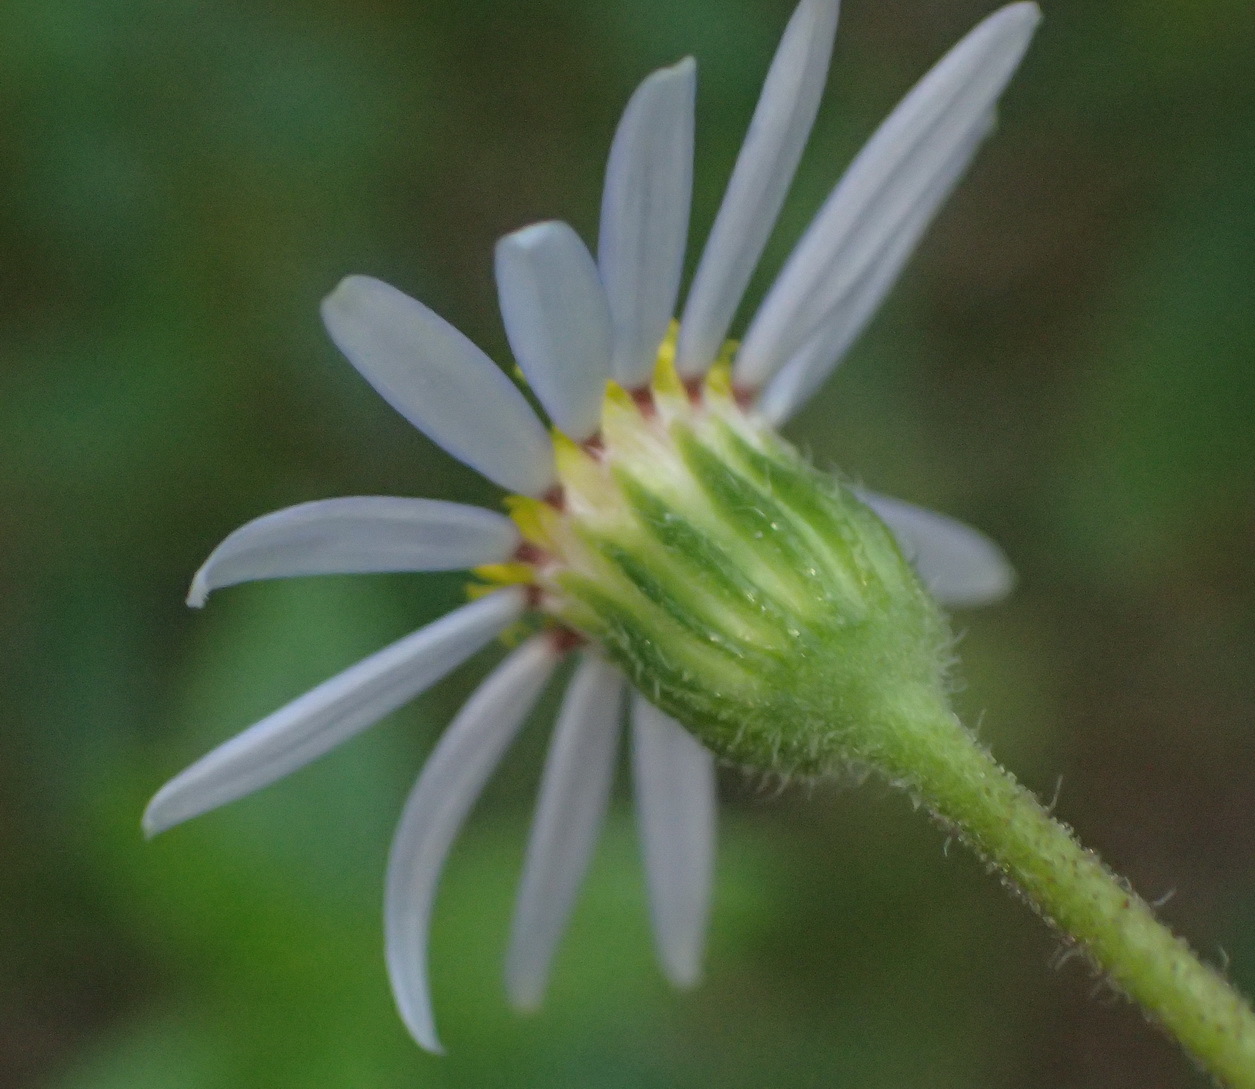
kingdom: Plantae
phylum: Tracheophyta
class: Magnoliopsida
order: Asterales
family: Asteraceae
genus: Felicia
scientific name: Felicia aethiopica
